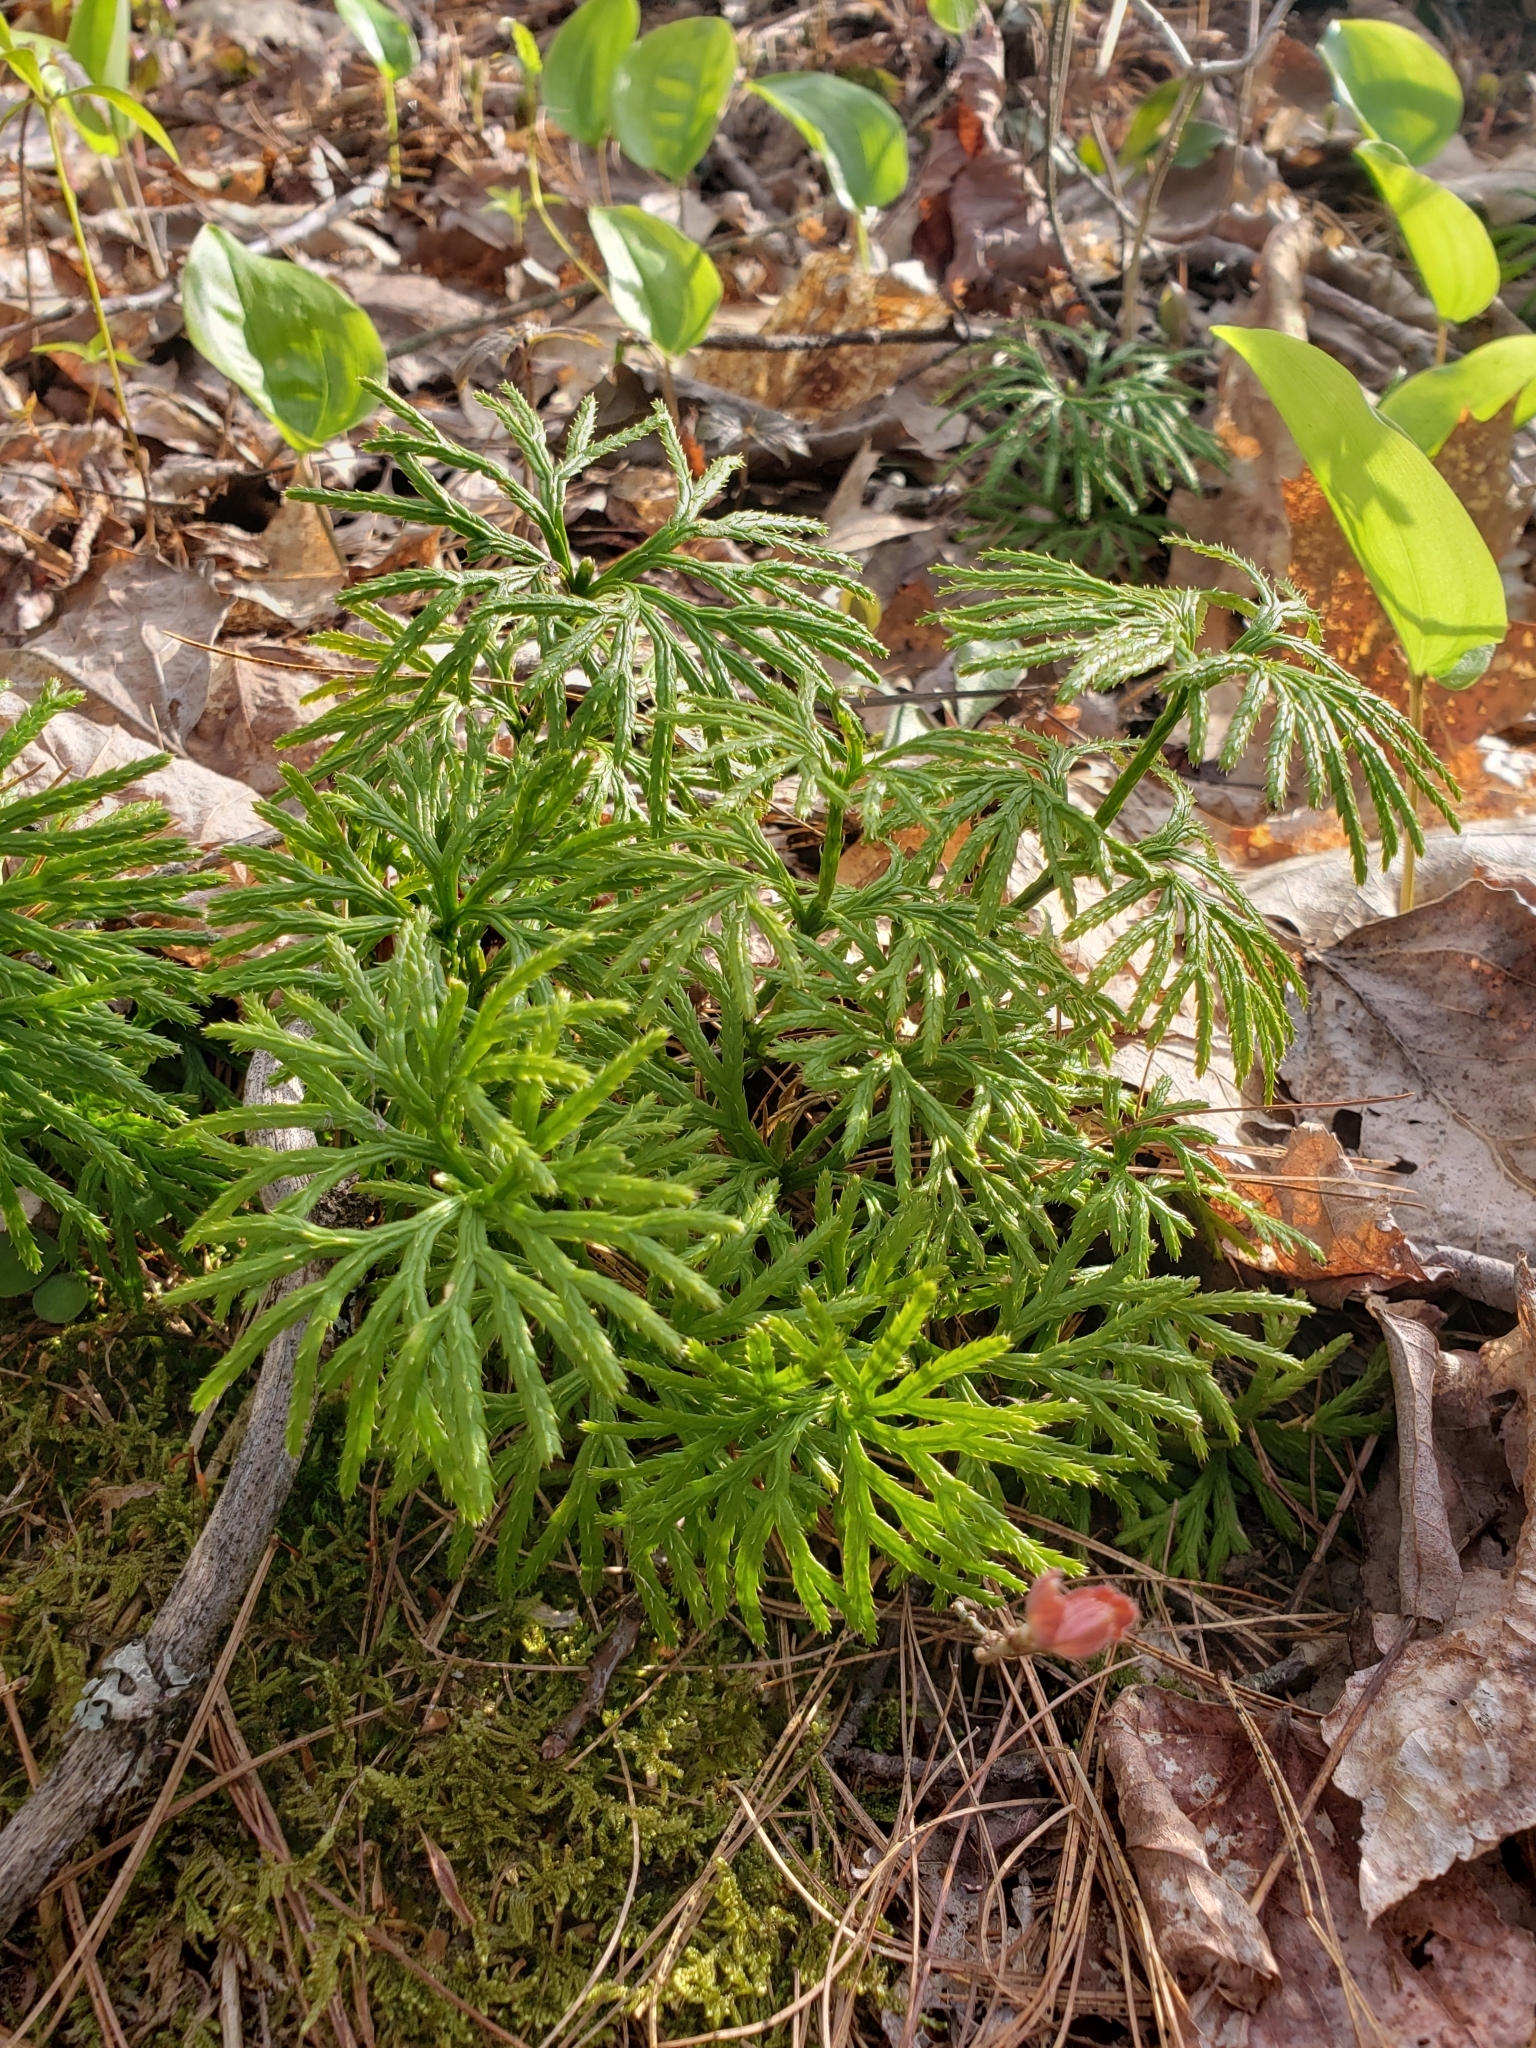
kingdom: Plantae
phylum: Tracheophyta
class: Lycopodiopsida
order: Lycopodiales
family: Lycopodiaceae
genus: Diphasiastrum
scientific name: Diphasiastrum digitatum
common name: Southern running-pine
